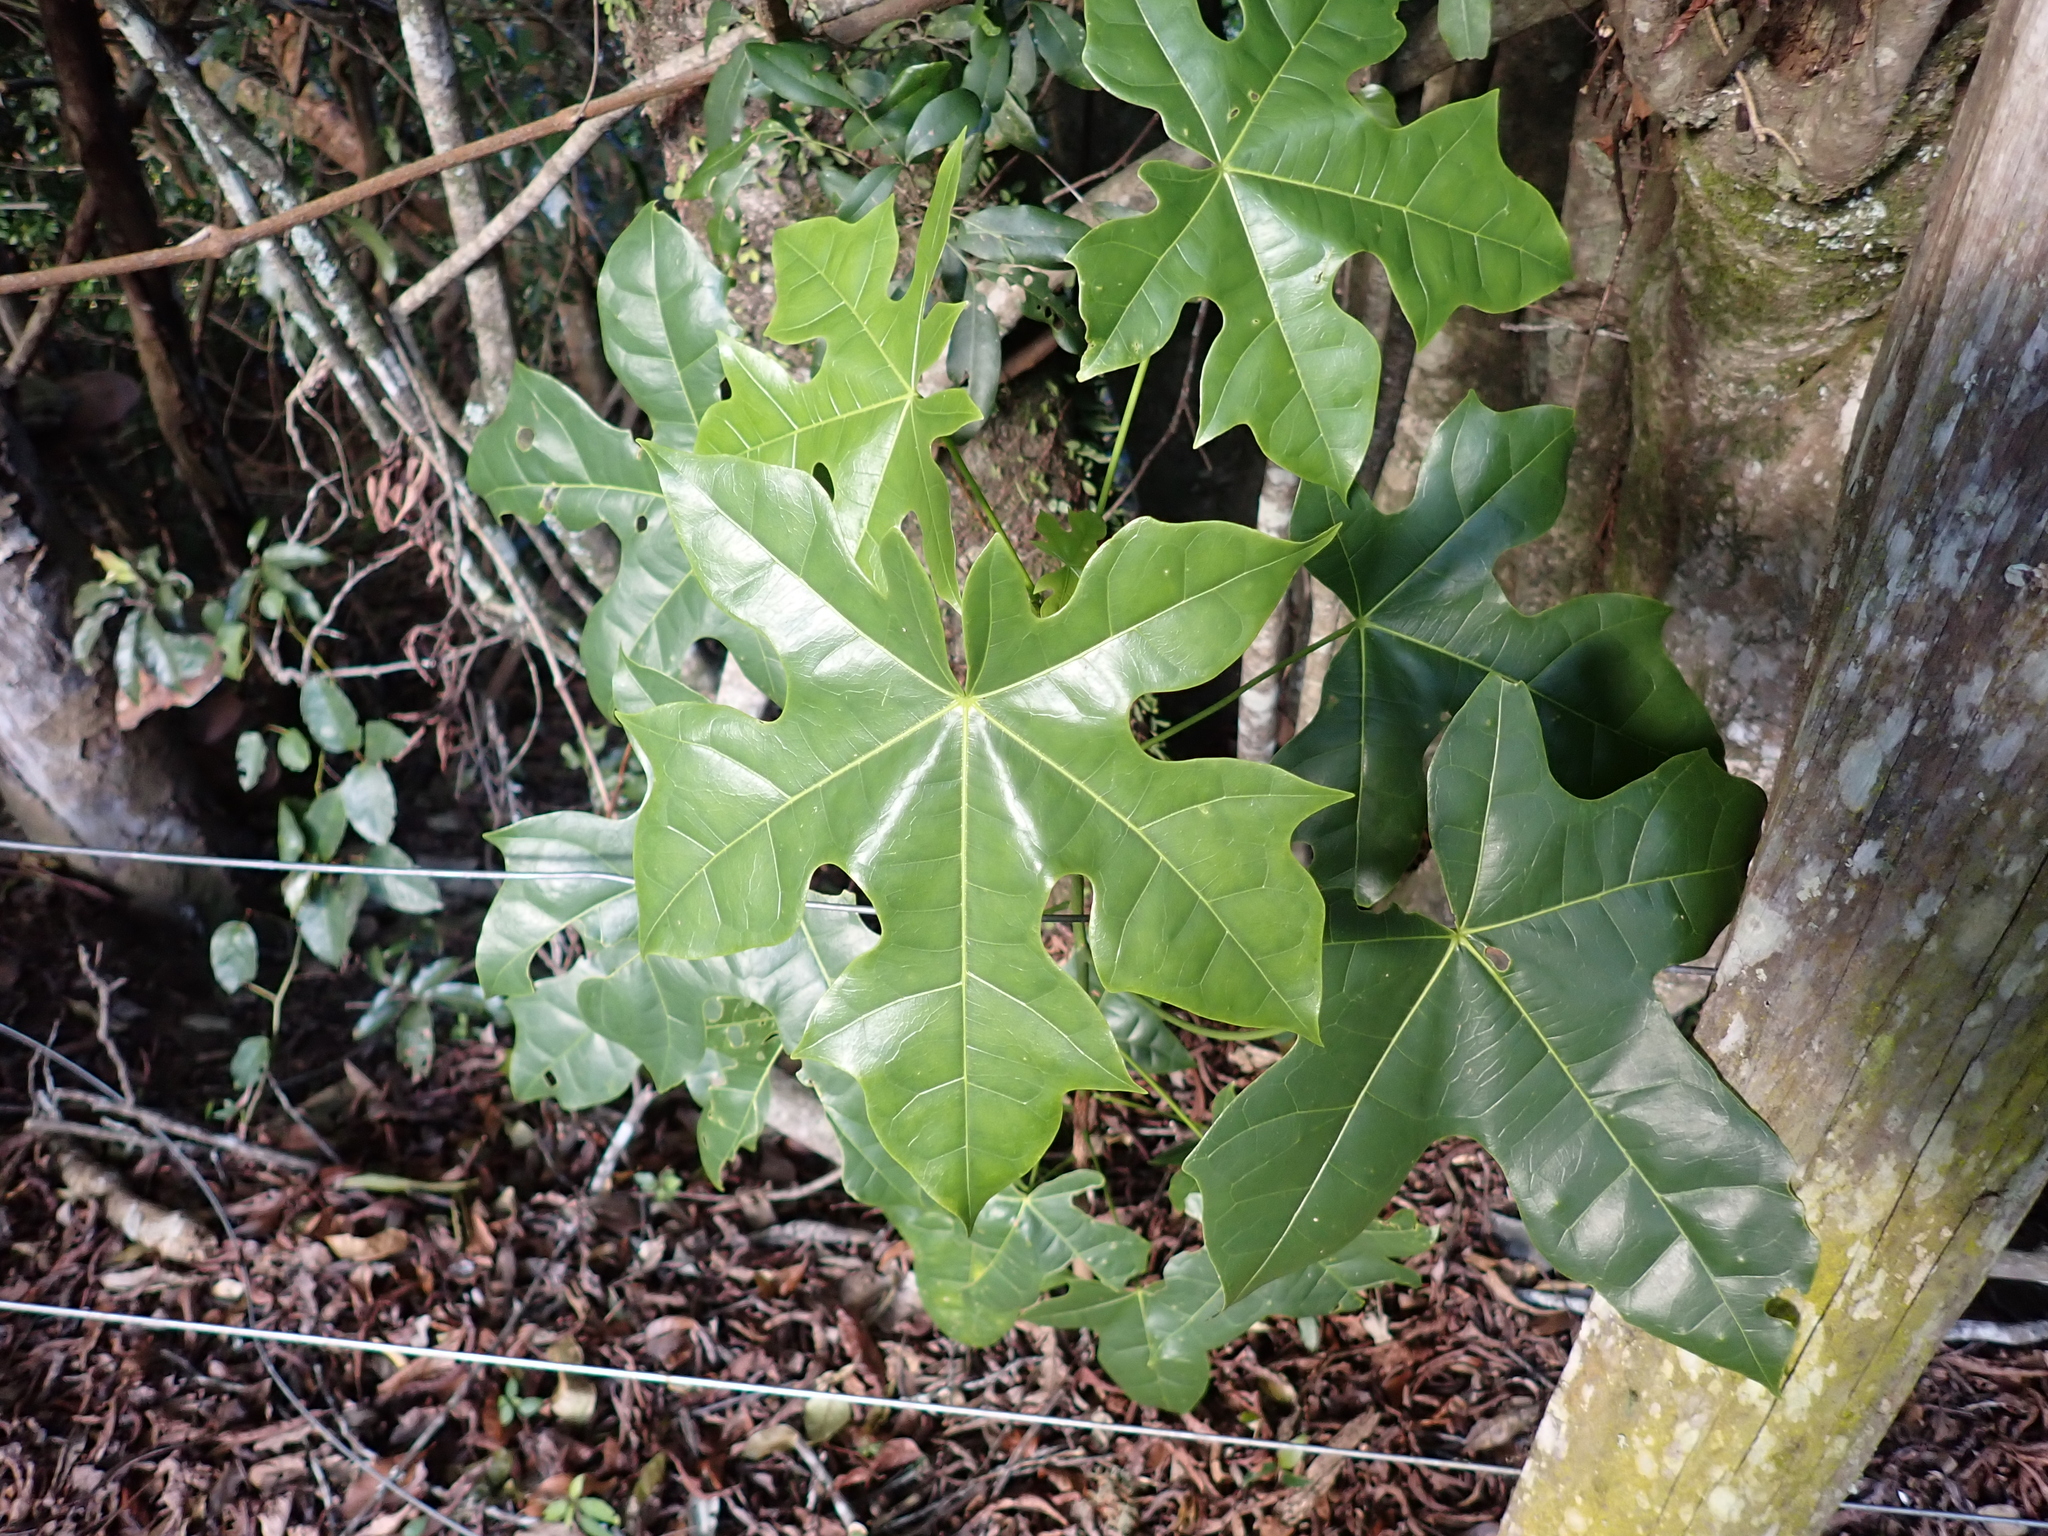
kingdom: Plantae
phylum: Tracheophyta
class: Magnoliopsida
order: Malvales
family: Malvaceae
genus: Brachychiton
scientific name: Brachychiton acerifolius
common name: Illawarra flame tree
